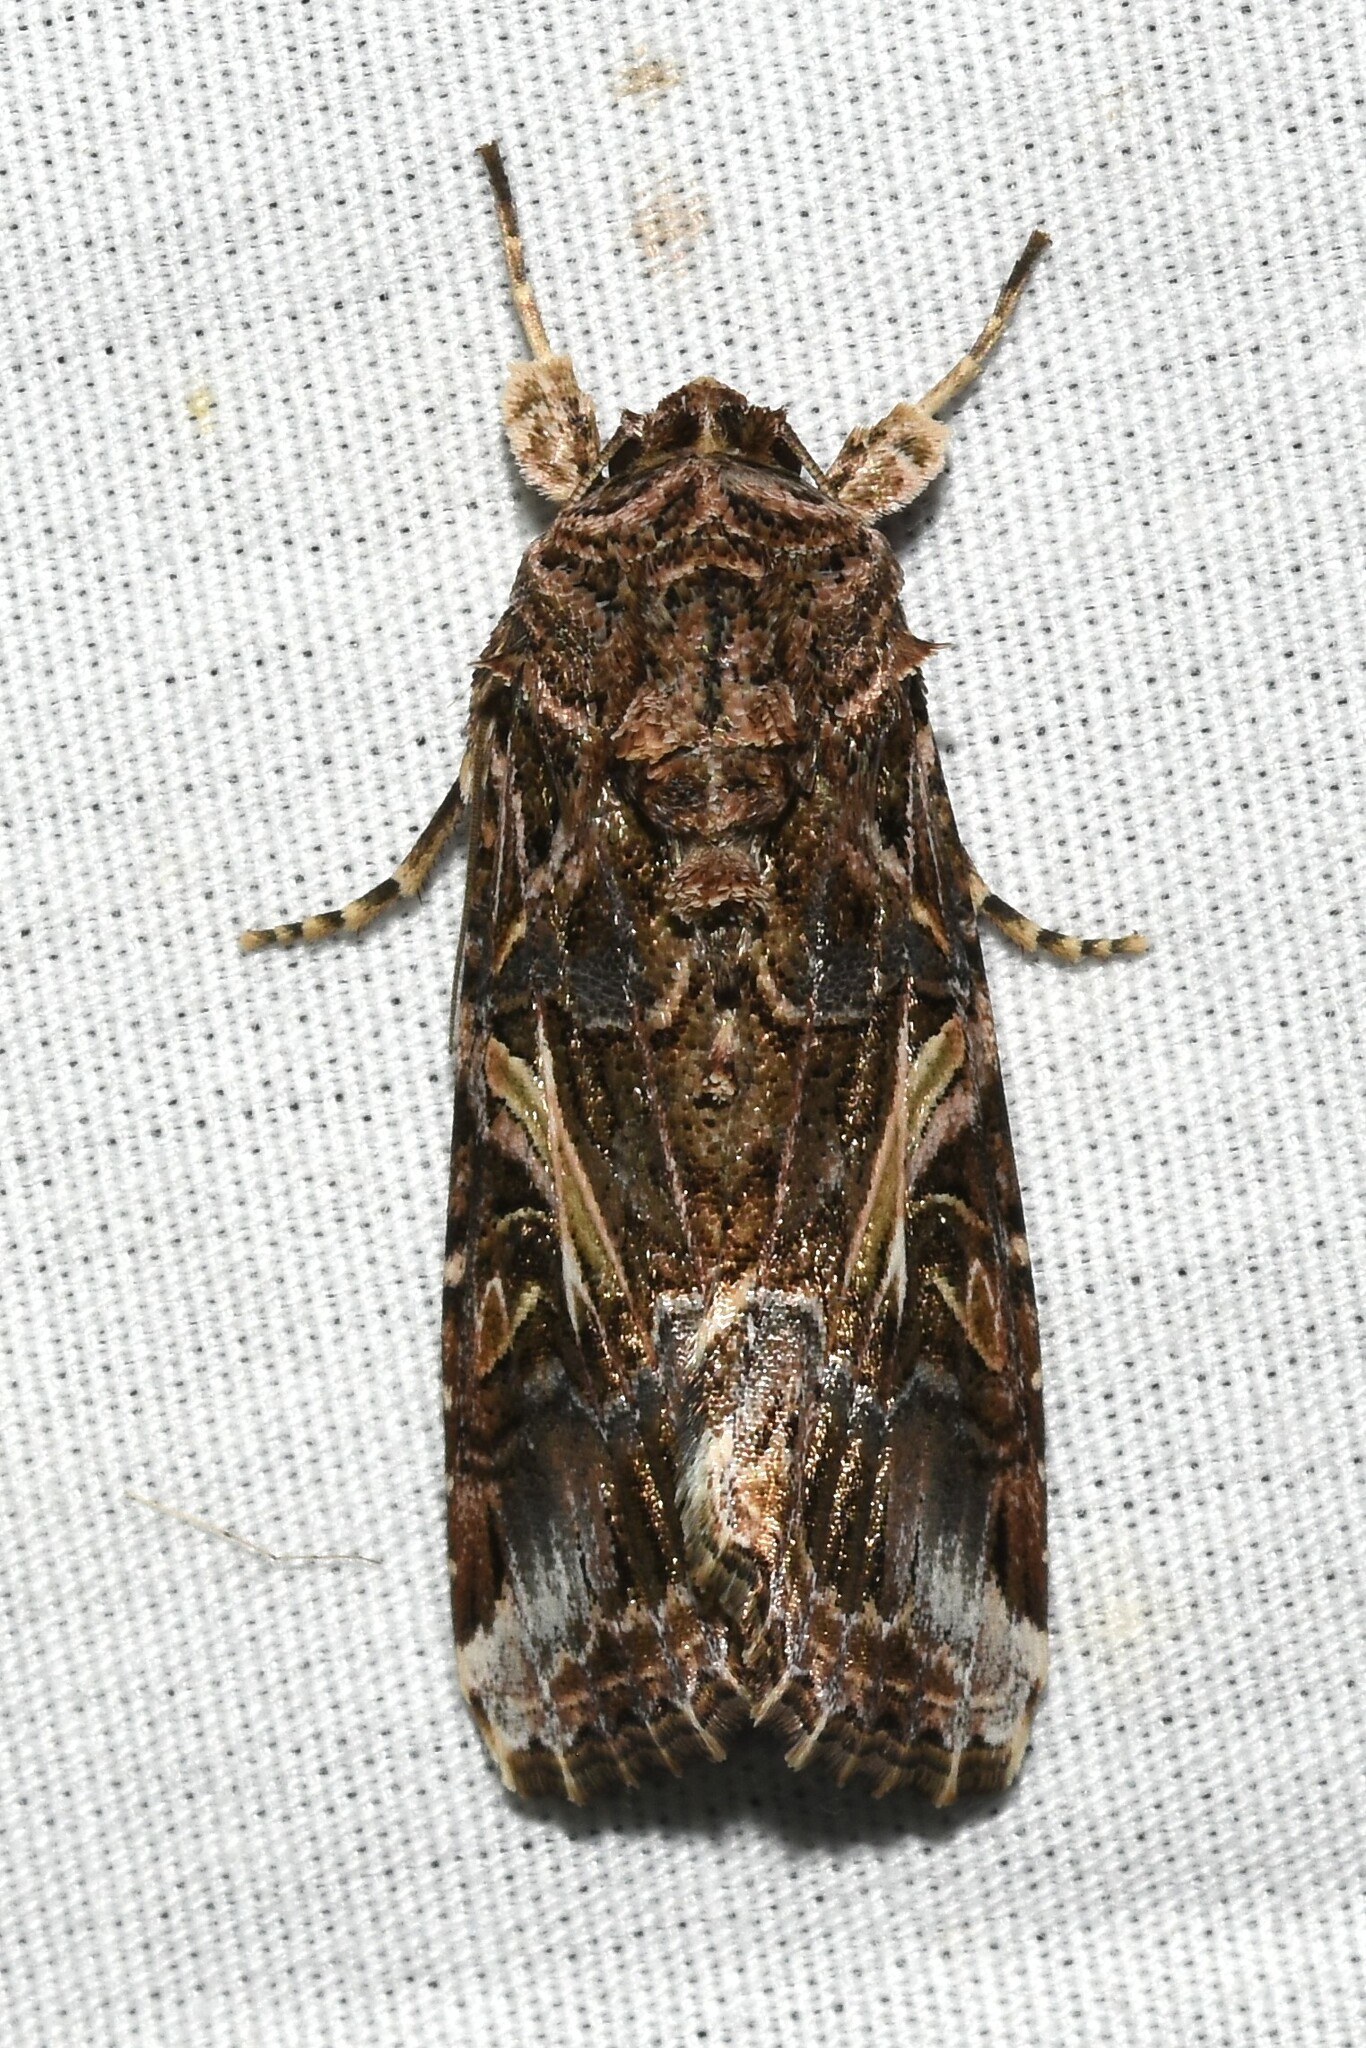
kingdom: Animalia
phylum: Arthropoda
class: Insecta
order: Lepidoptera
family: Noctuidae
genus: Spodoptera
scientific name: Spodoptera ornithogalli
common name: Yellow-striped armyworm
